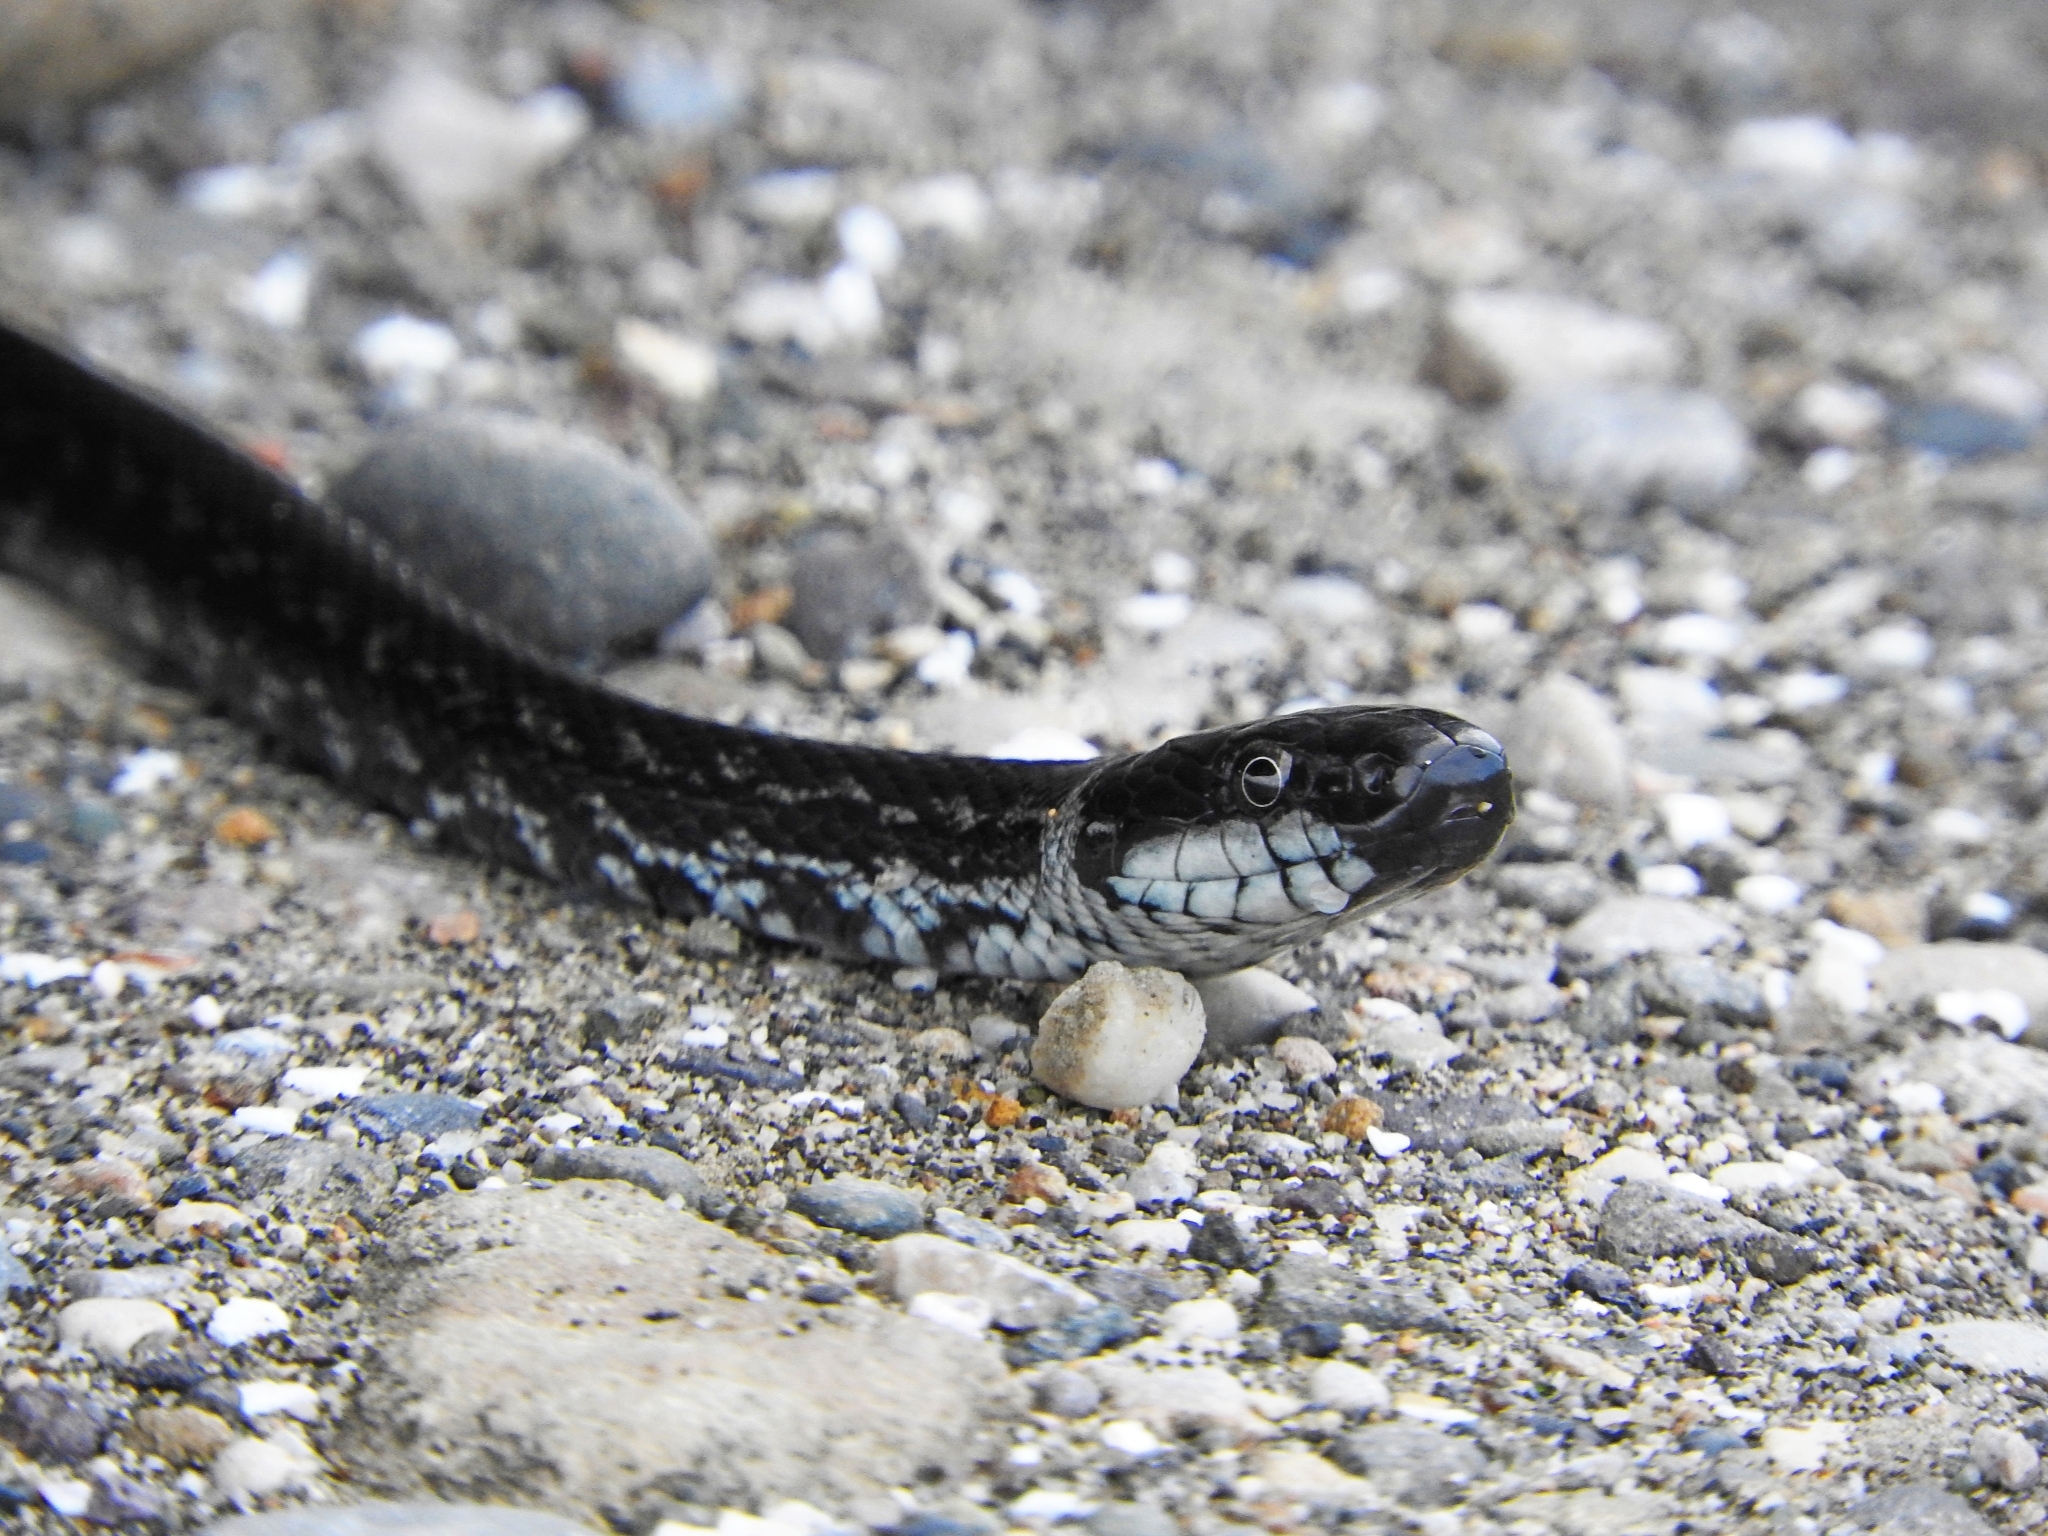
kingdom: Animalia
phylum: Chordata
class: Squamata
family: Colubridae
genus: Zamenis
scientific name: Zamenis persicus
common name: Persian rat snake
